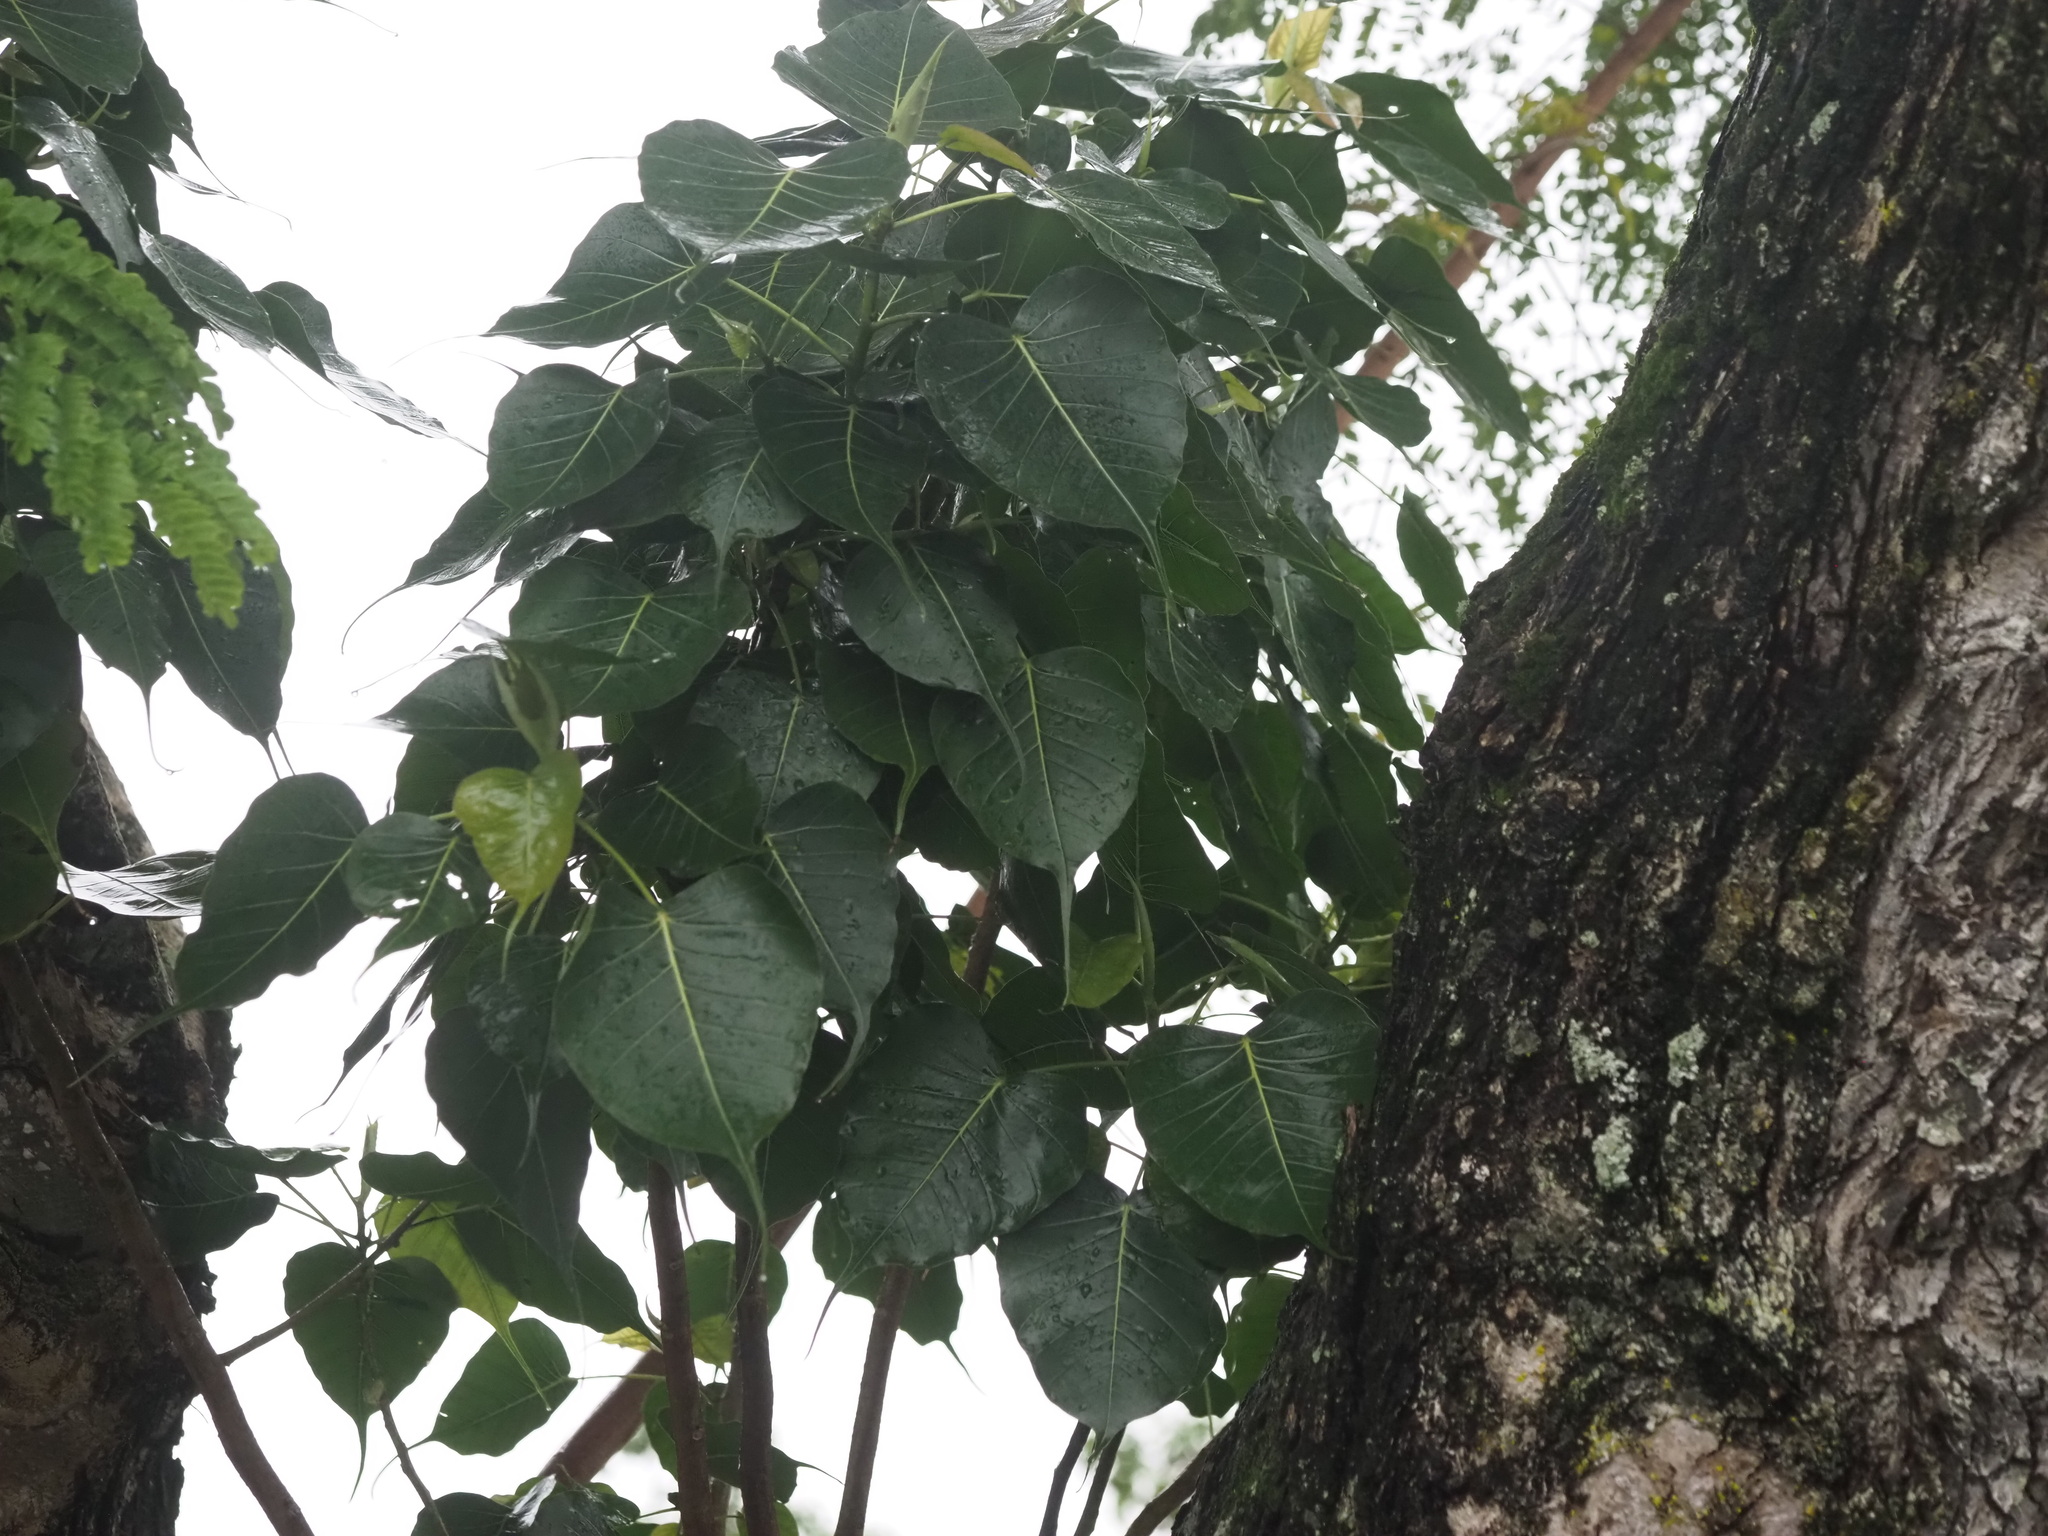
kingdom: Plantae
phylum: Tracheophyta
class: Magnoliopsida
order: Rosales
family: Moraceae
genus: Ficus
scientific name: Ficus religiosa
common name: Bodhi tree
